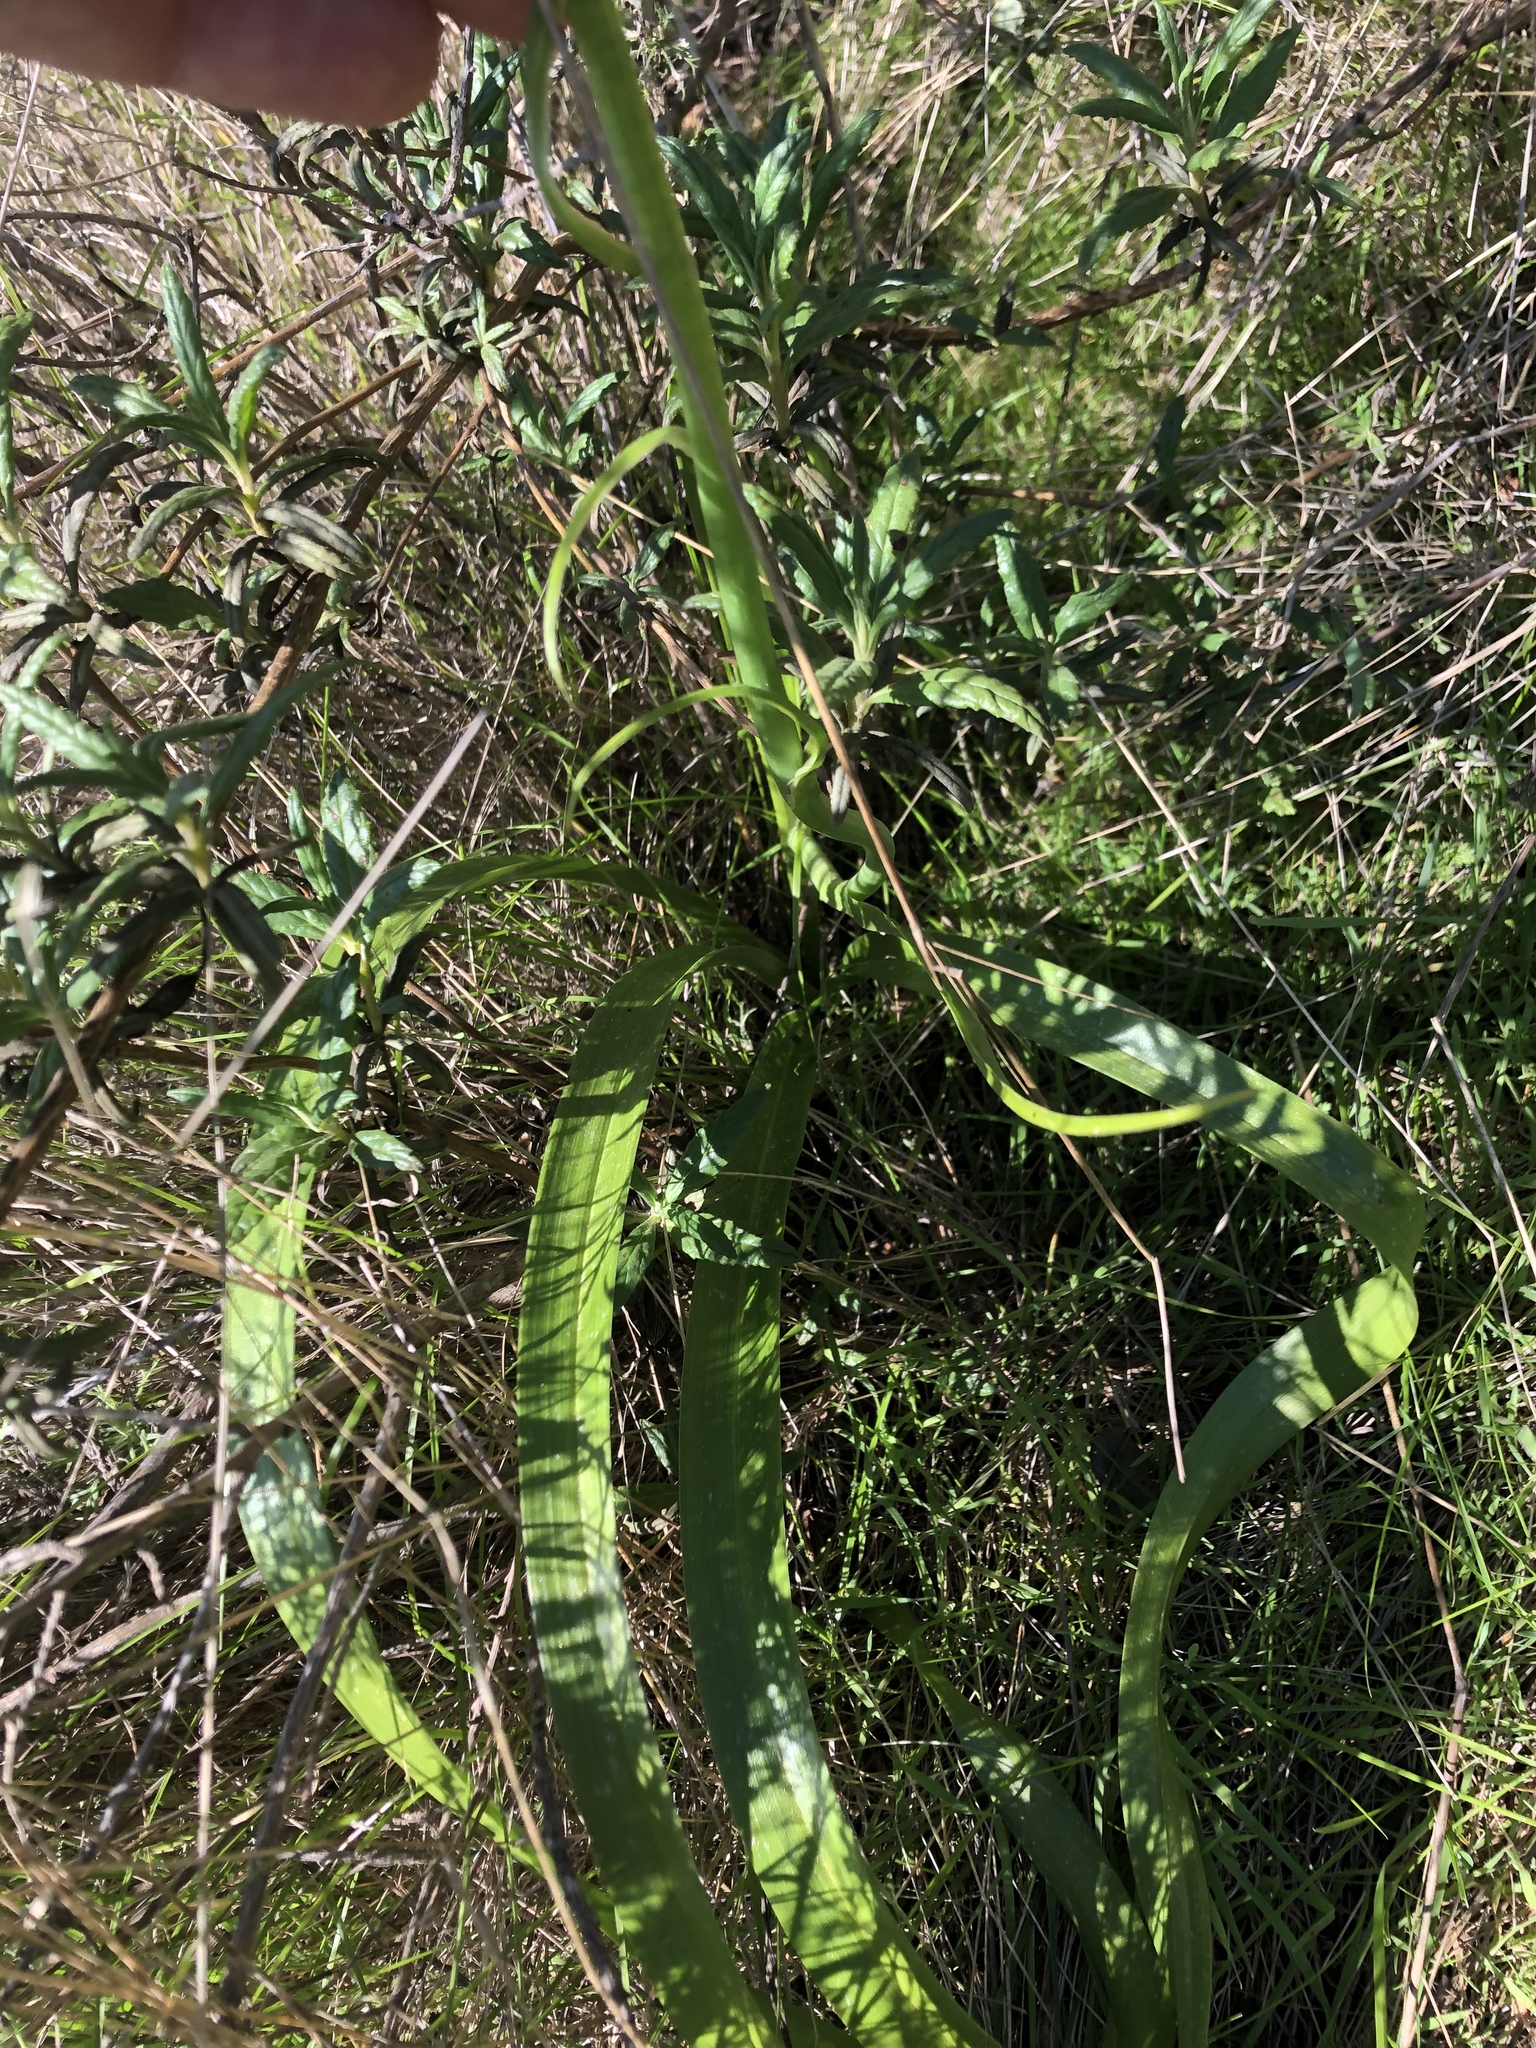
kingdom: Plantae
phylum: Tracheophyta
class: Liliopsida
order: Liliales
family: Melanthiaceae
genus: Toxicoscordion
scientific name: Toxicoscordion fremontii
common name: Fremont's death camas
